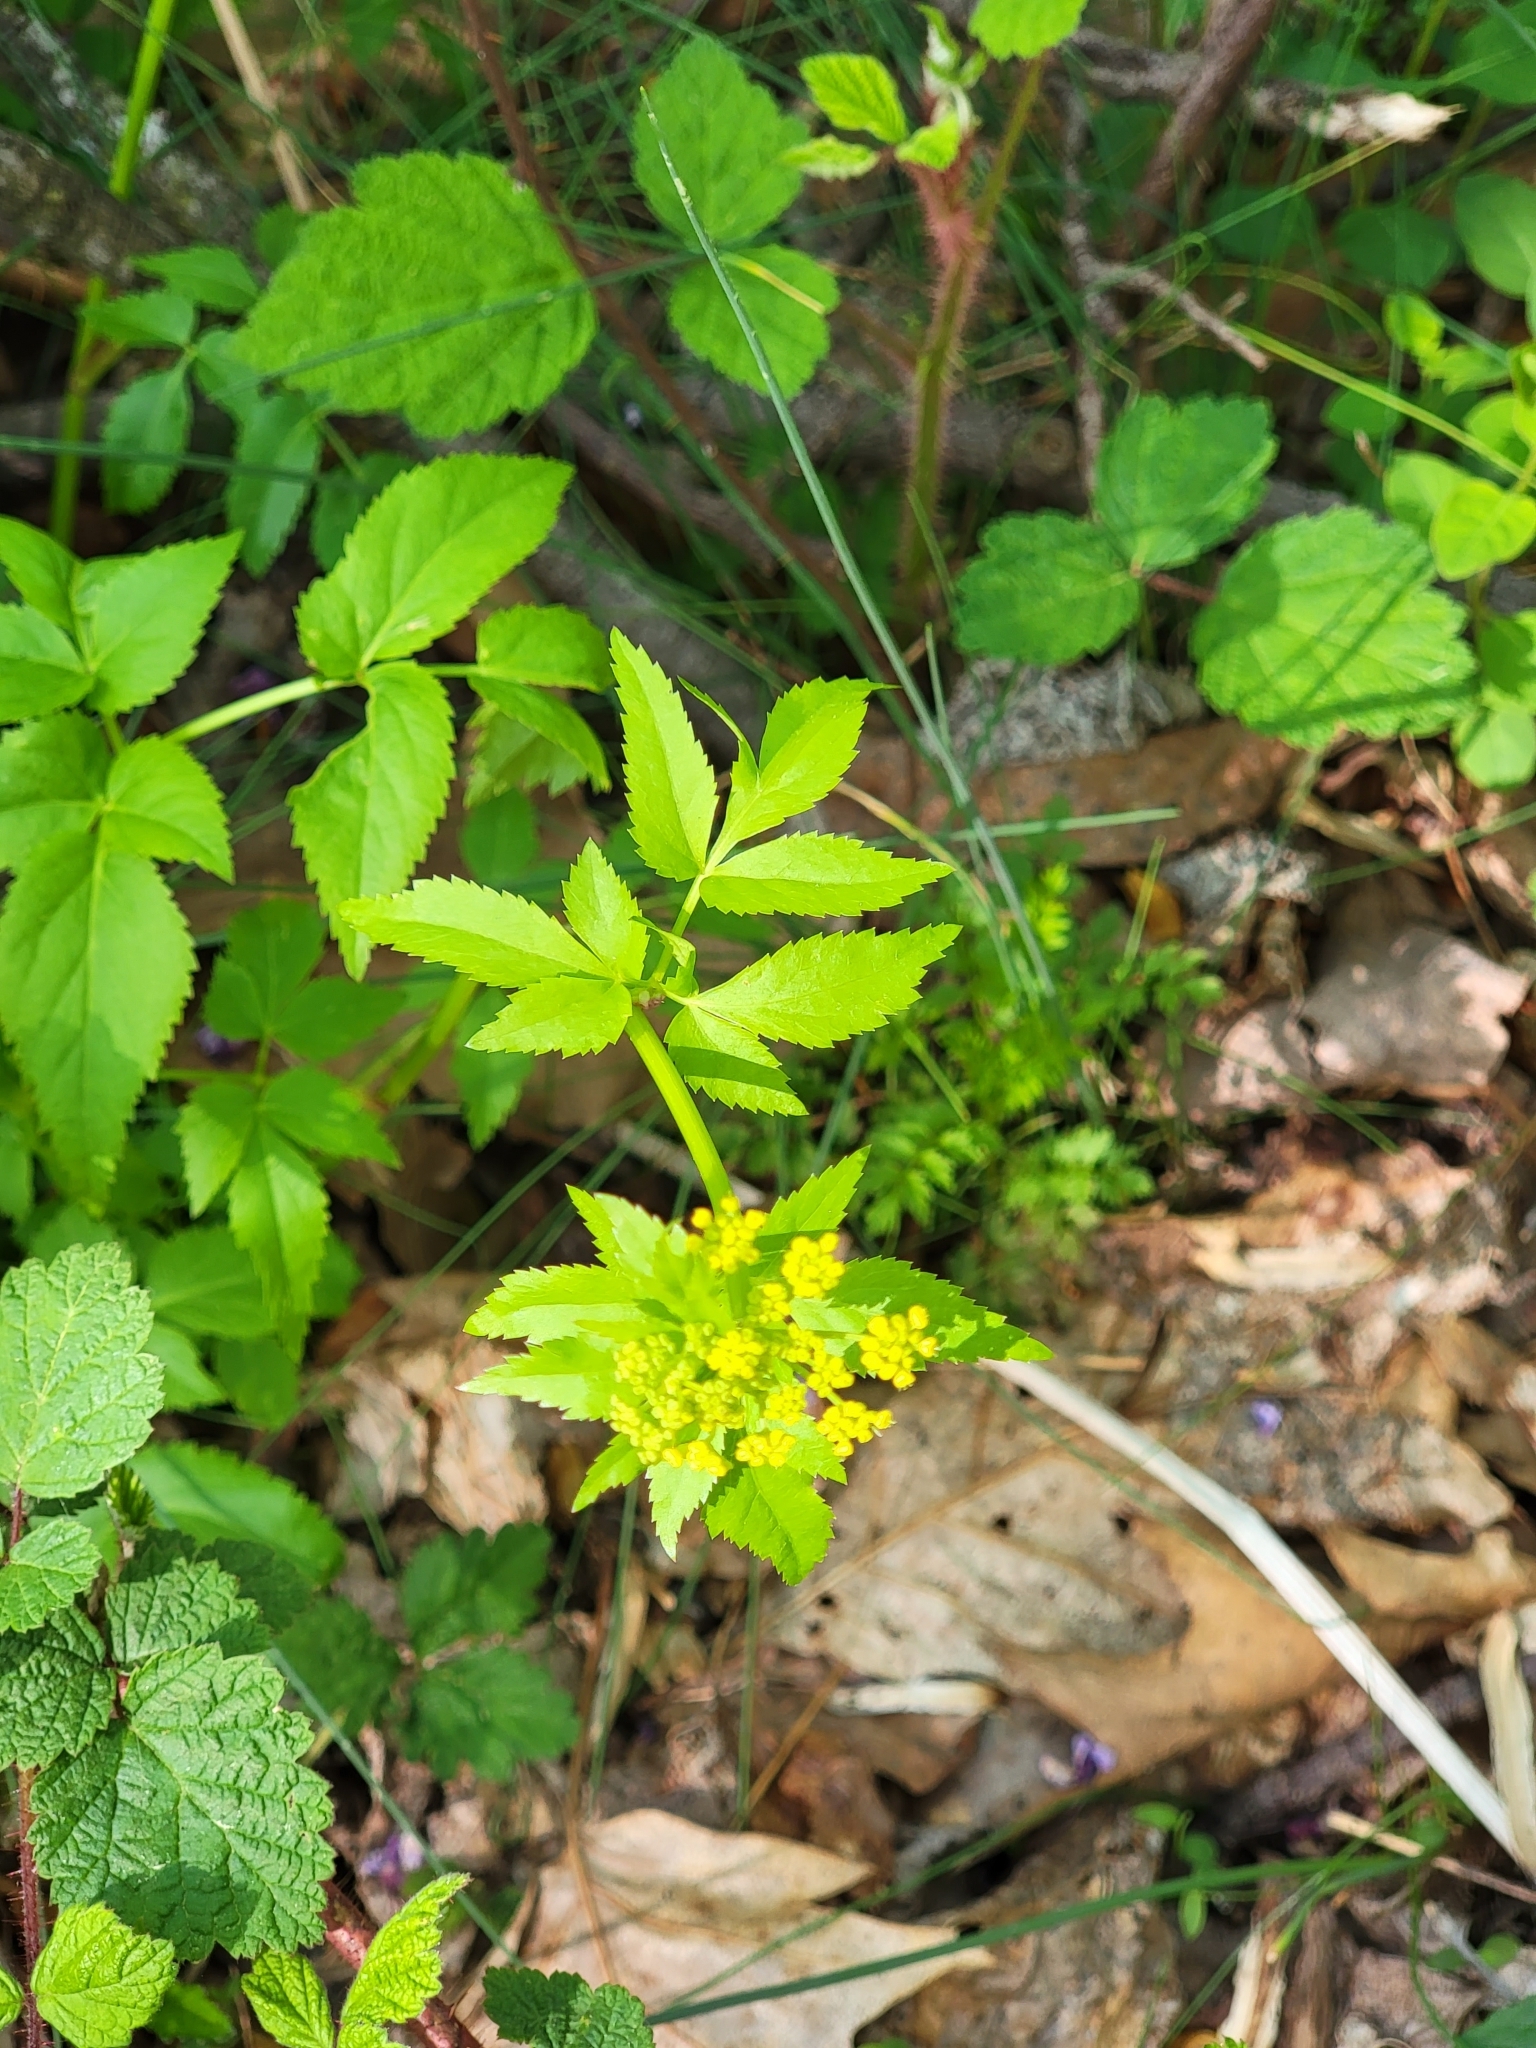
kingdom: Plantae
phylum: Tracheophyta
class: Magnoliopsida
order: Apiales
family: Apiaceae
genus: Zizia
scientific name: Zizia aurea
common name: Golden alexanders
